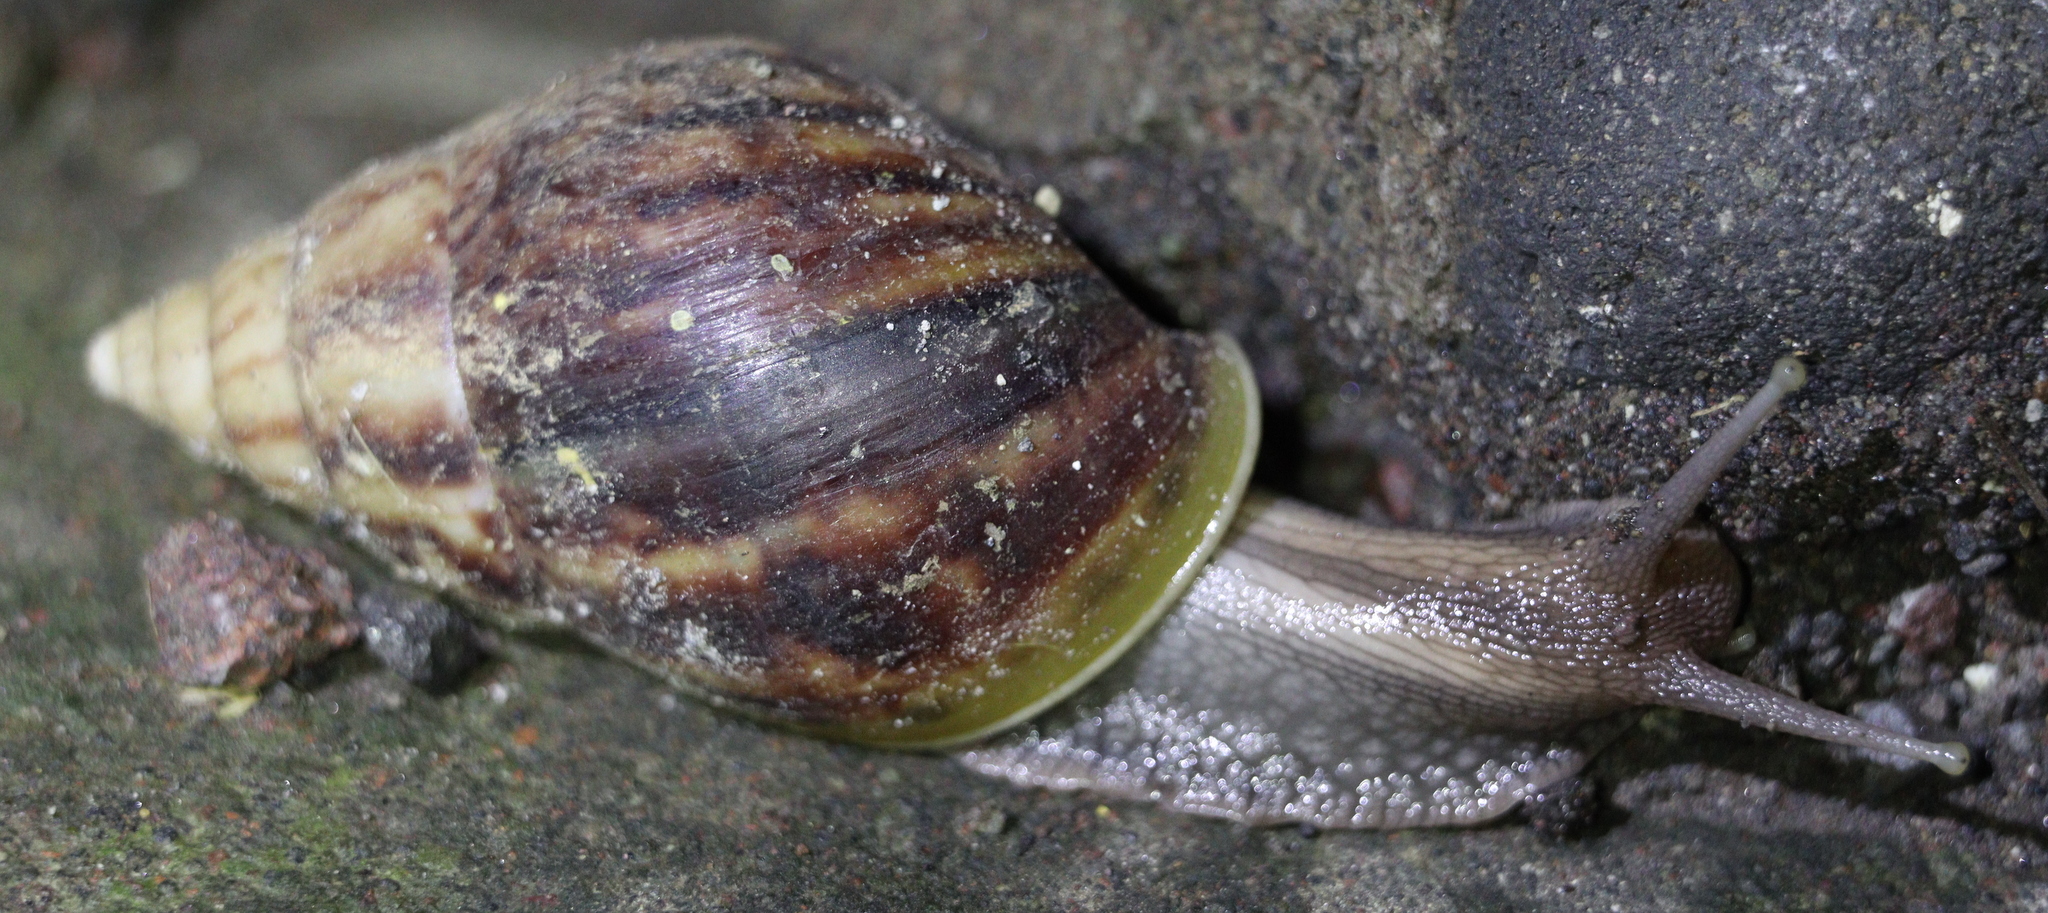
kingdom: Animalia
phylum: Mollusca
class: Gastropoda
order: Stylommatophora
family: Achatinidae
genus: Lissachatina
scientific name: Lissachatina fulica
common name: Giant african snail
